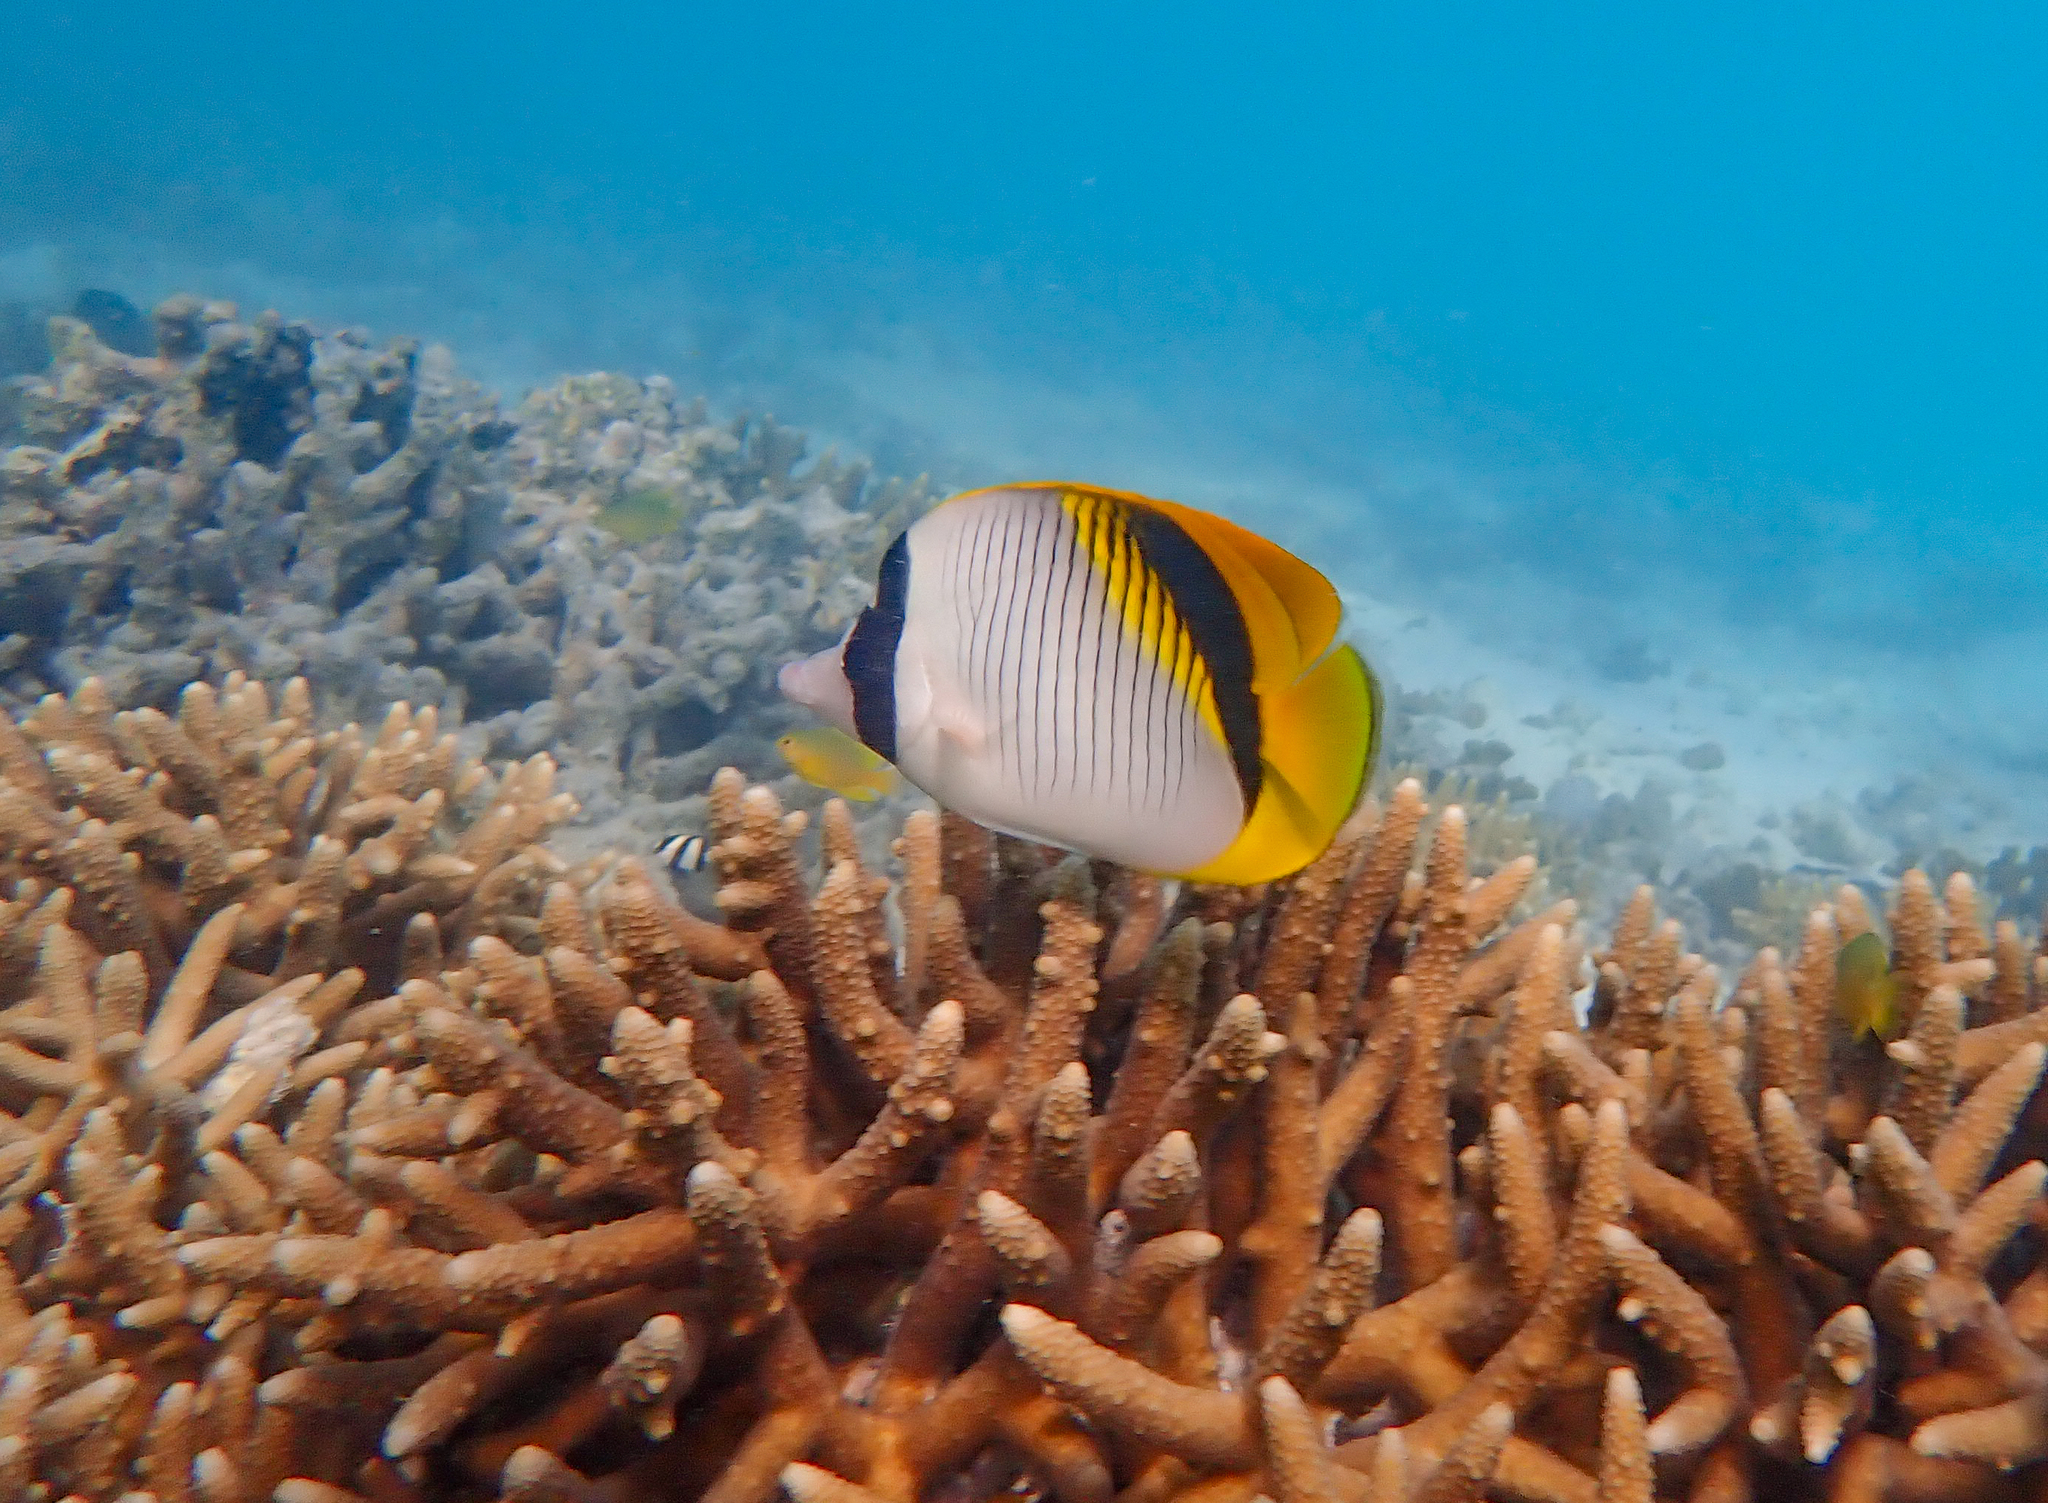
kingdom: Animalia
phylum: Chordata
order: Perciformes
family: Chaetodontidae
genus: Chaetodon
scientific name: Chaetodon lineolatus
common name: Lined butterflyfish
